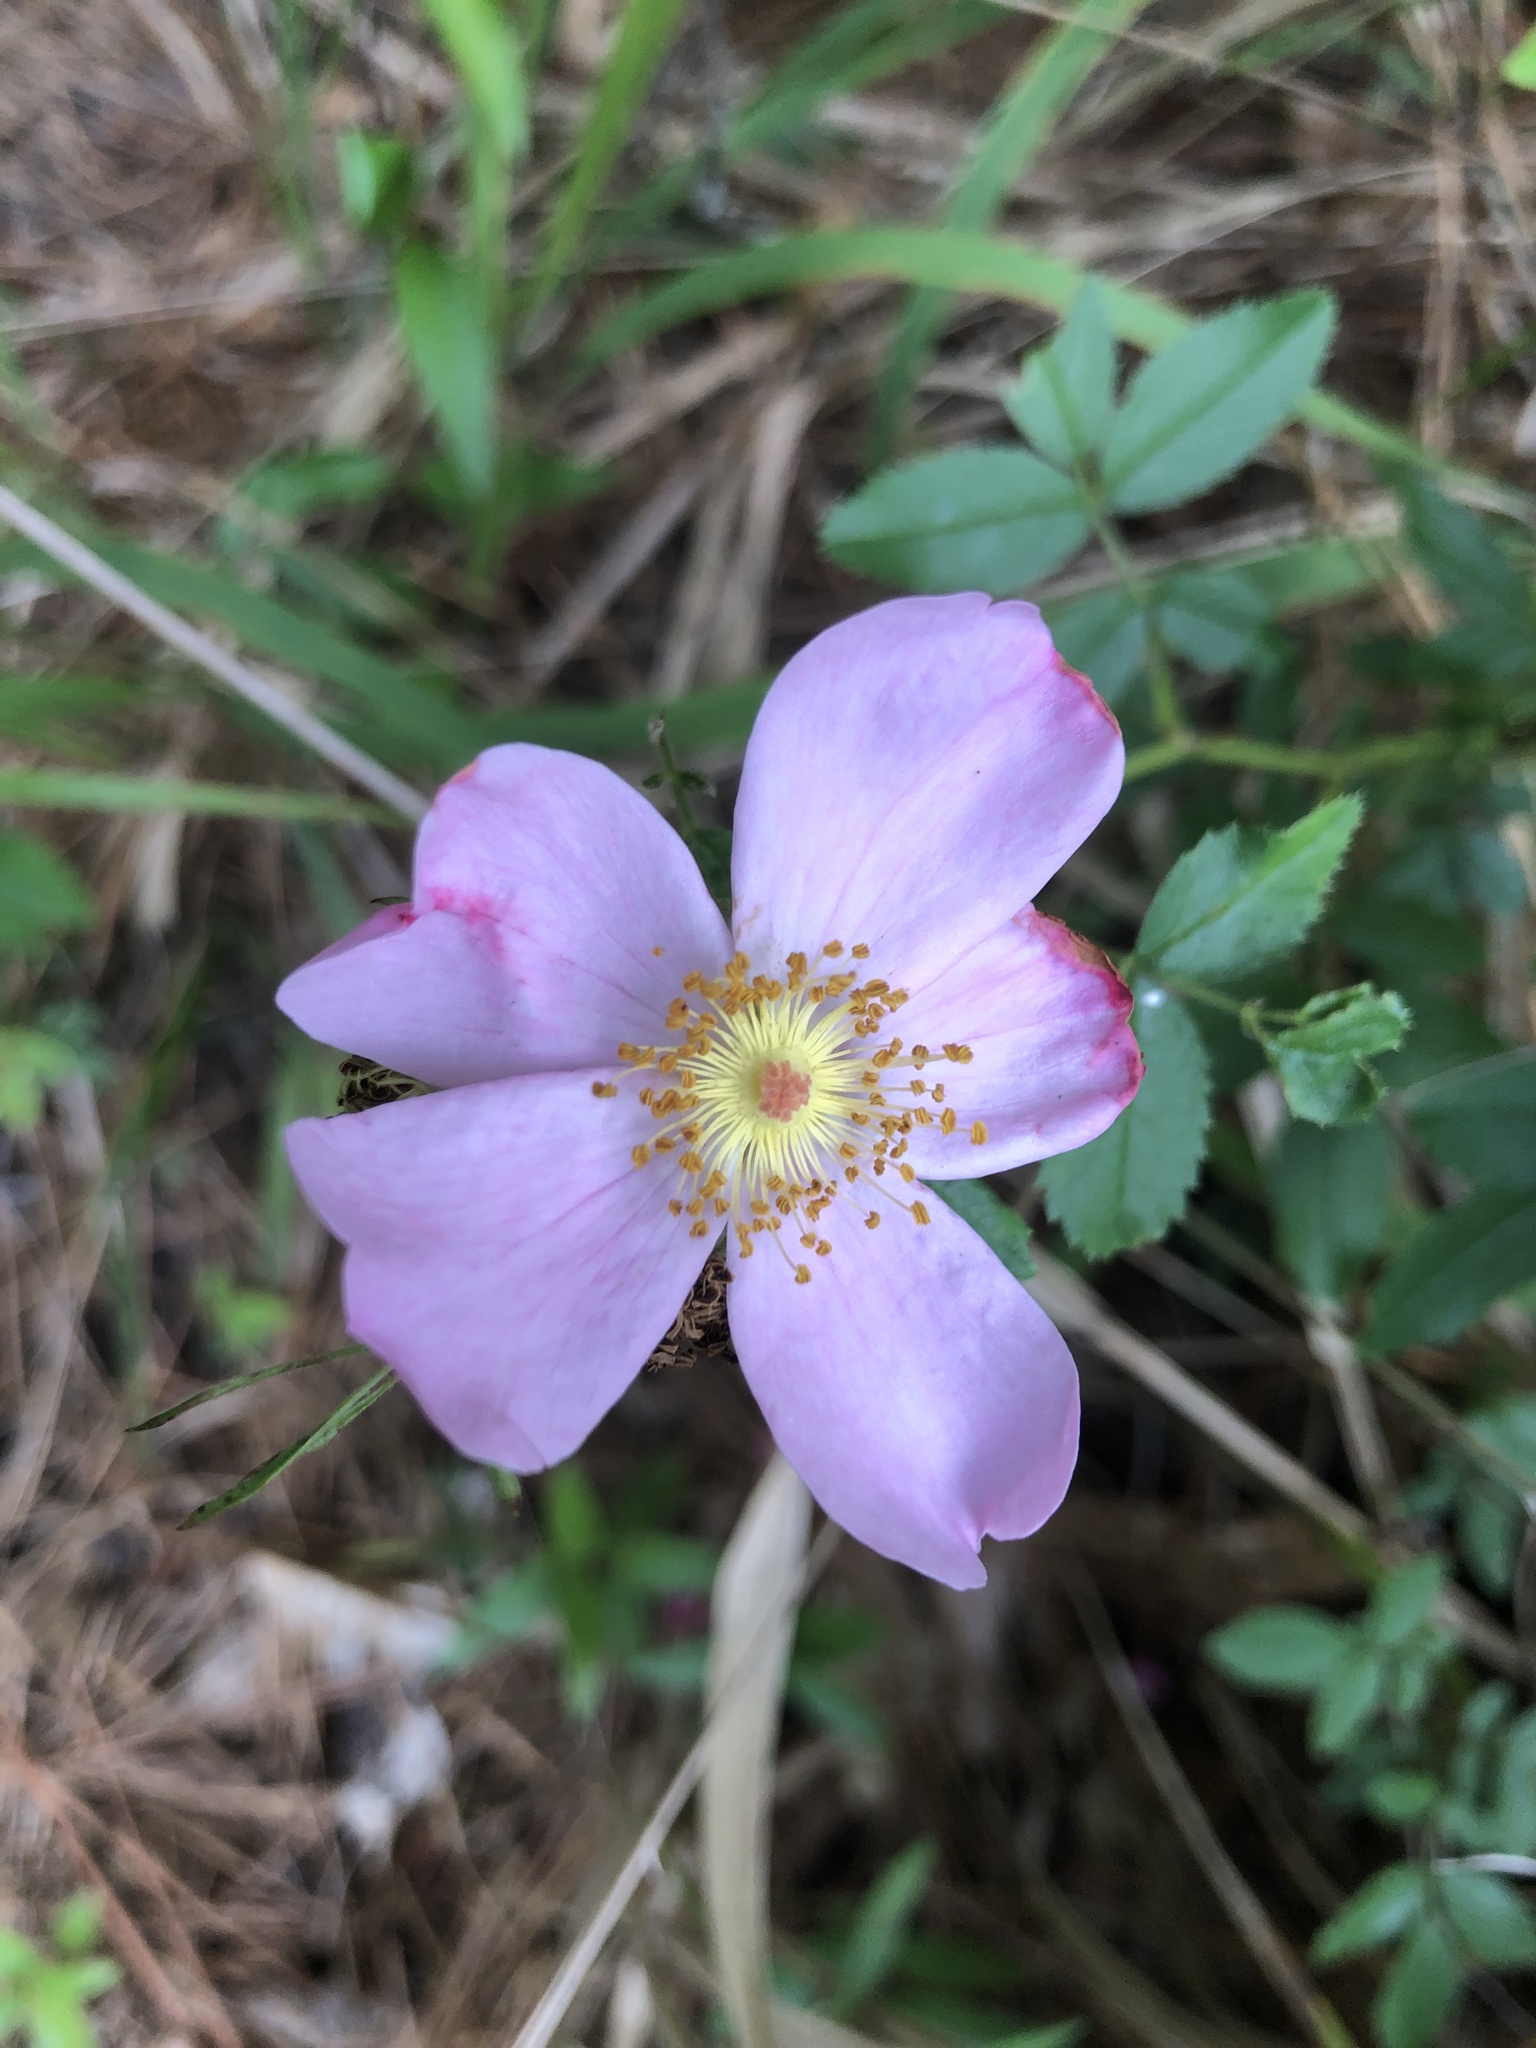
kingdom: Plantae
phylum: Tracheophyta
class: Magnoliopsida
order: Rosales
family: Rosaceae
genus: Rosa
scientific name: Rosa carolina
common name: Pasture rose
